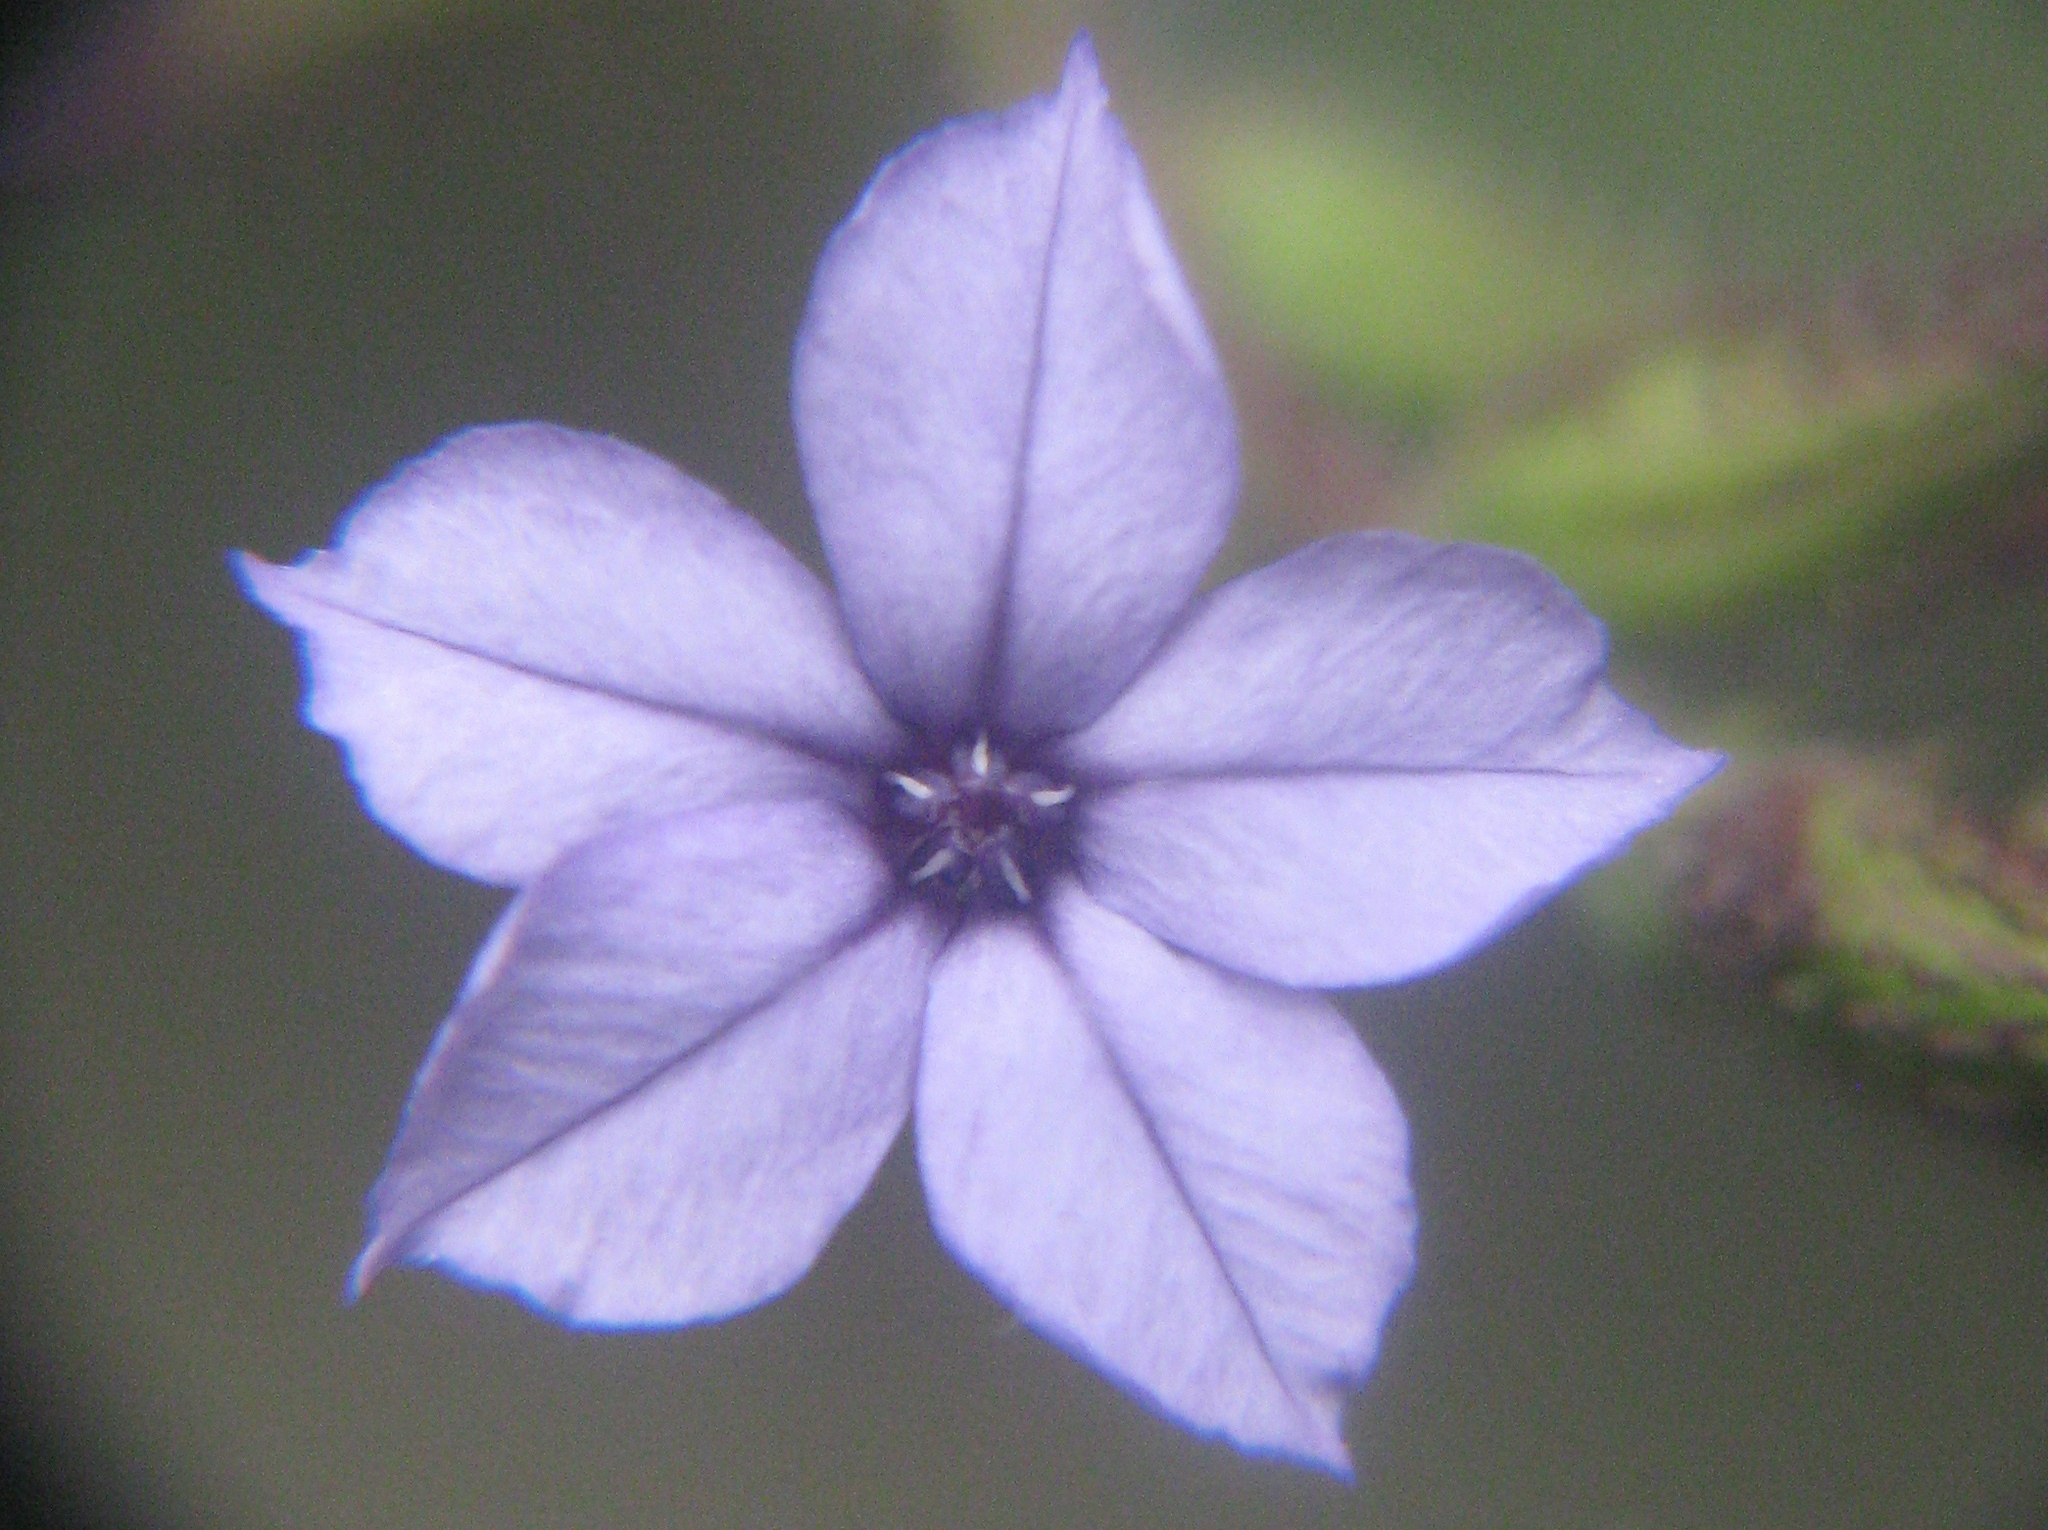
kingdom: Plantae
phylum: Tracheophyta
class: Magnoliopsida
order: Caryophyllales
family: Plumbaginaceae
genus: Plumbago
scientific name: Plumbago caerulea
